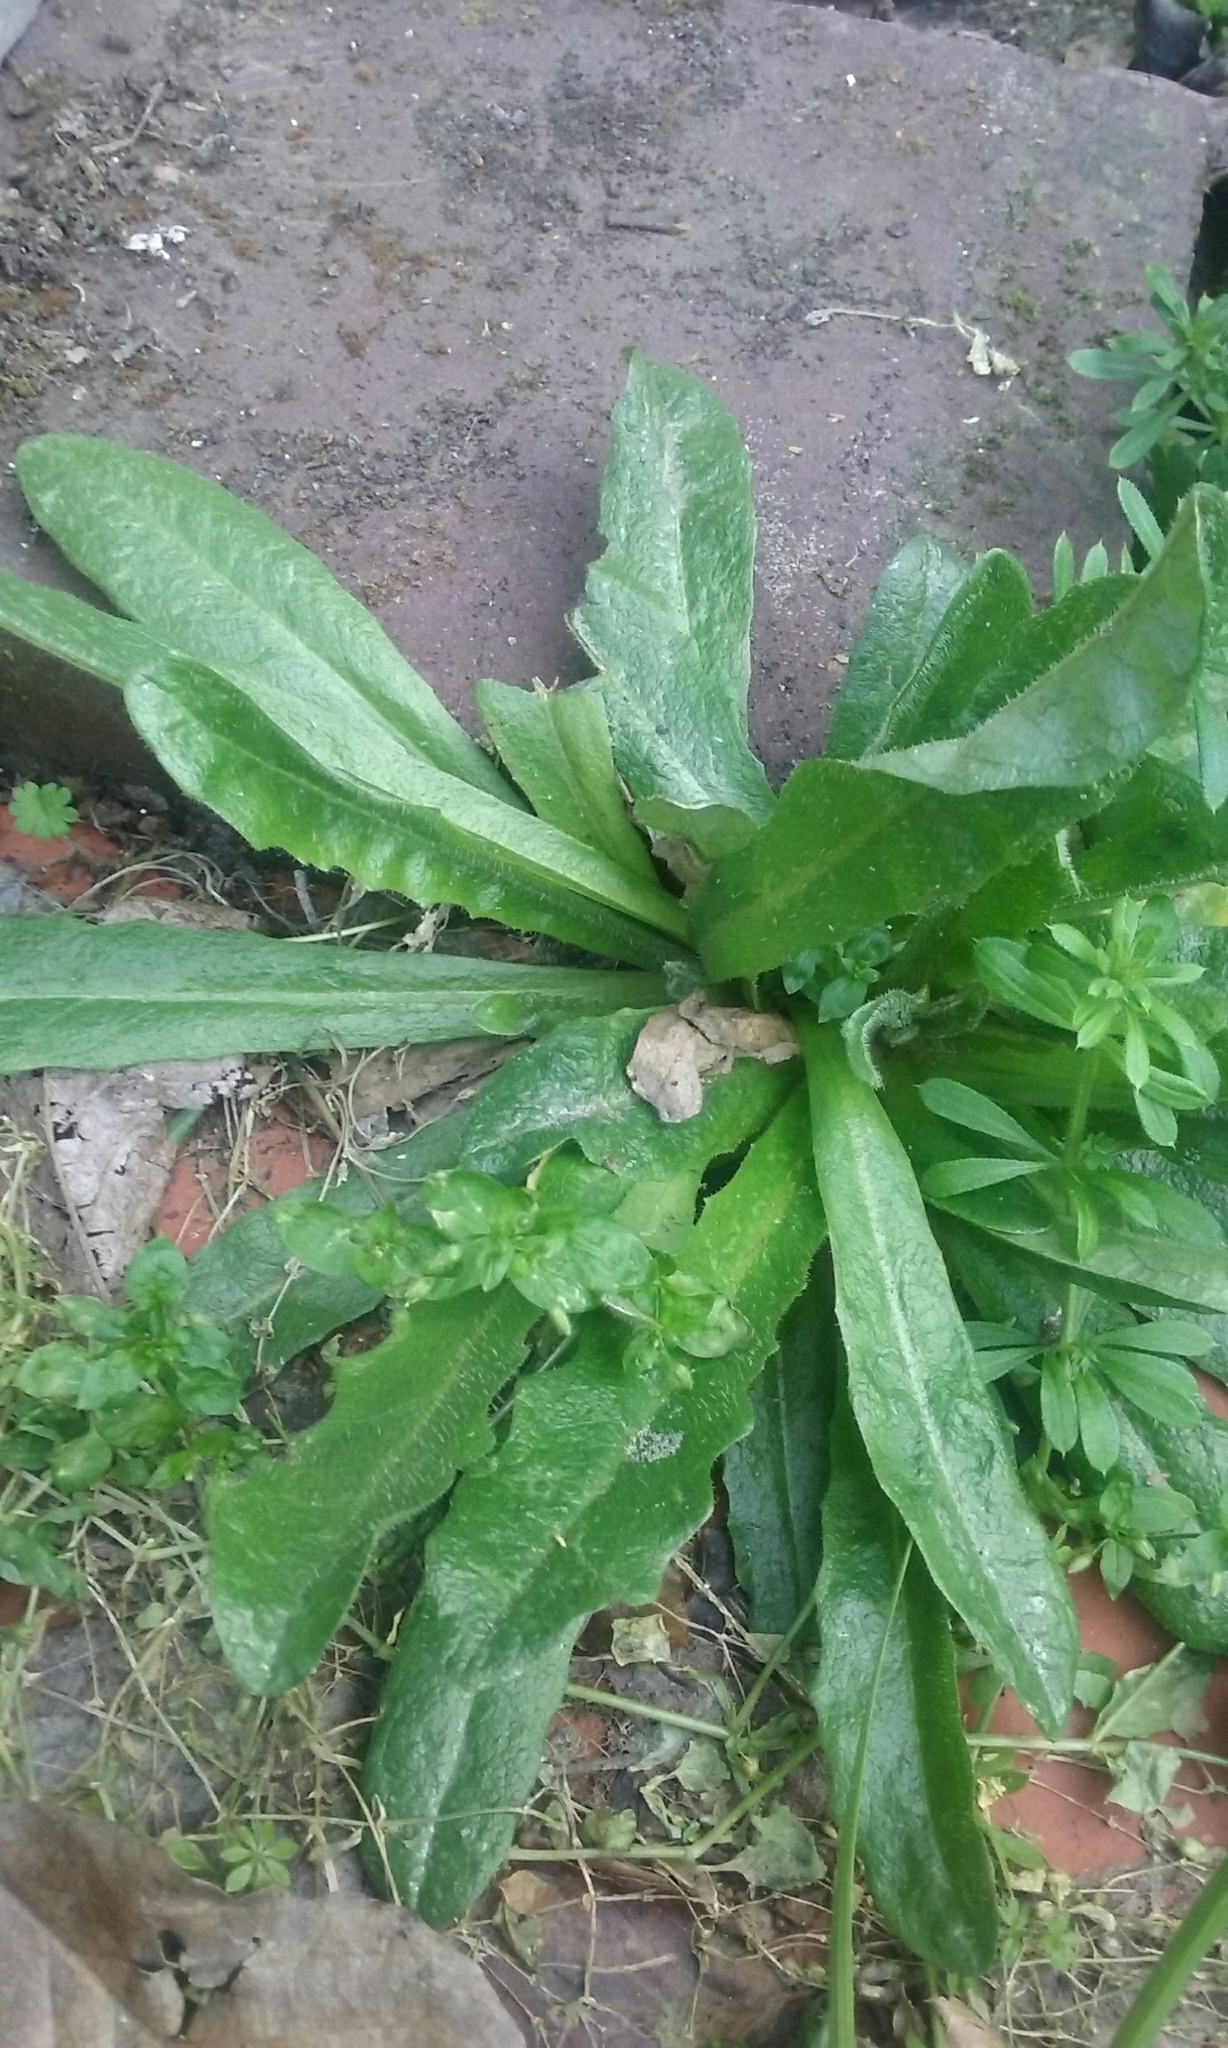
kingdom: Plantae
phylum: Tracheophyta
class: Magnoliopsida
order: Asterales
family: Asteraceae
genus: Hypochaeris
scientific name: Hypochaeris radicata
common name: Flatweed
